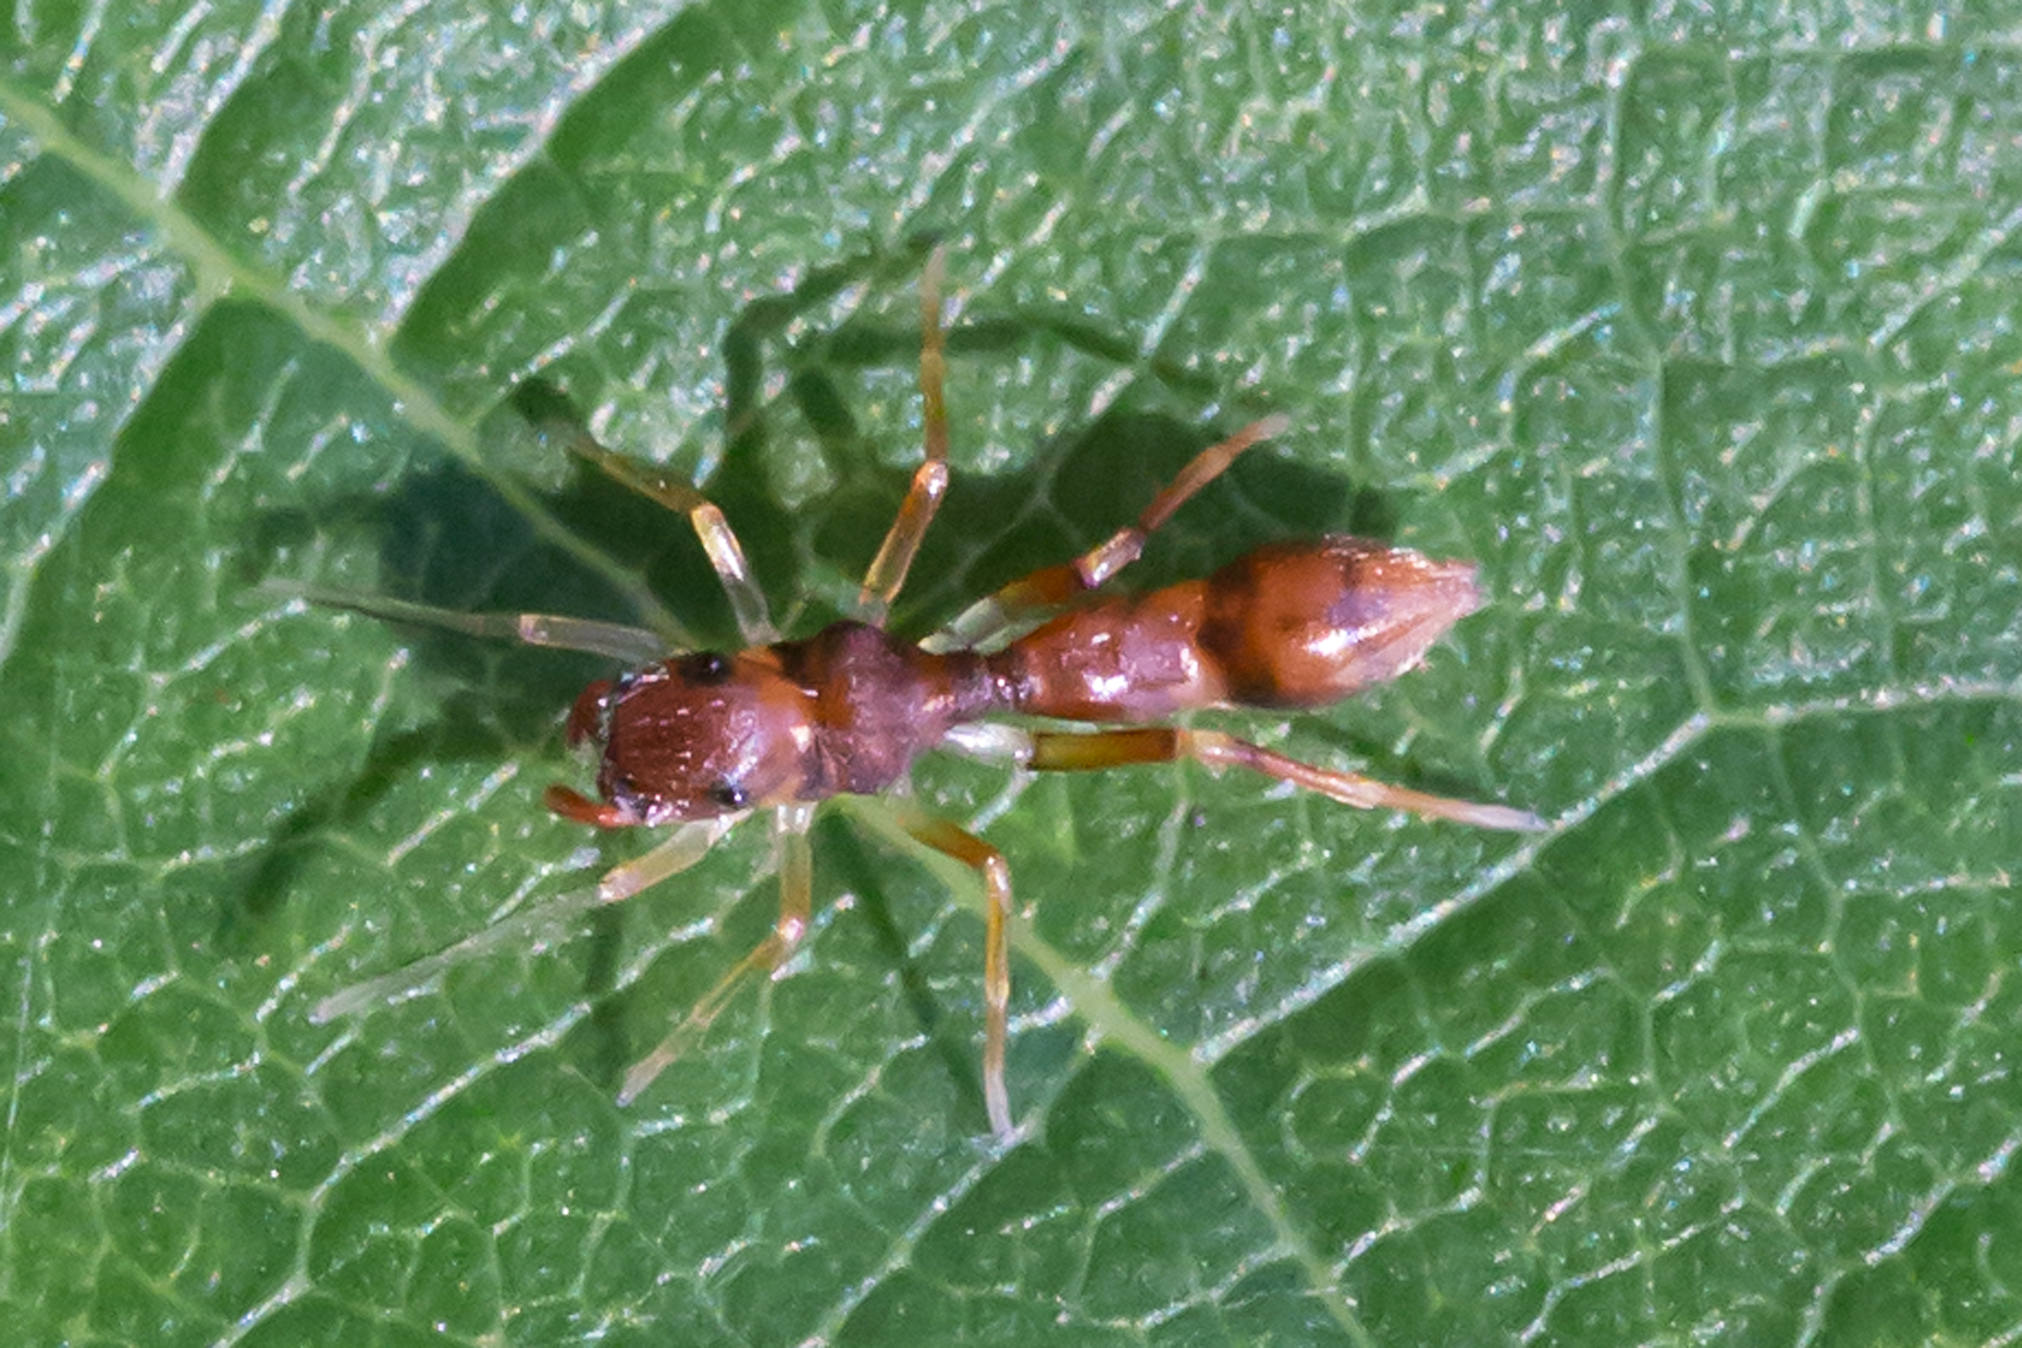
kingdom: Animalia
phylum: Arthropoda
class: Arachnida
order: Araneae
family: Salticidae
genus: Synemosyna
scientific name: Synemosyna formica
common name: Slender ant-mimic jumping spider
